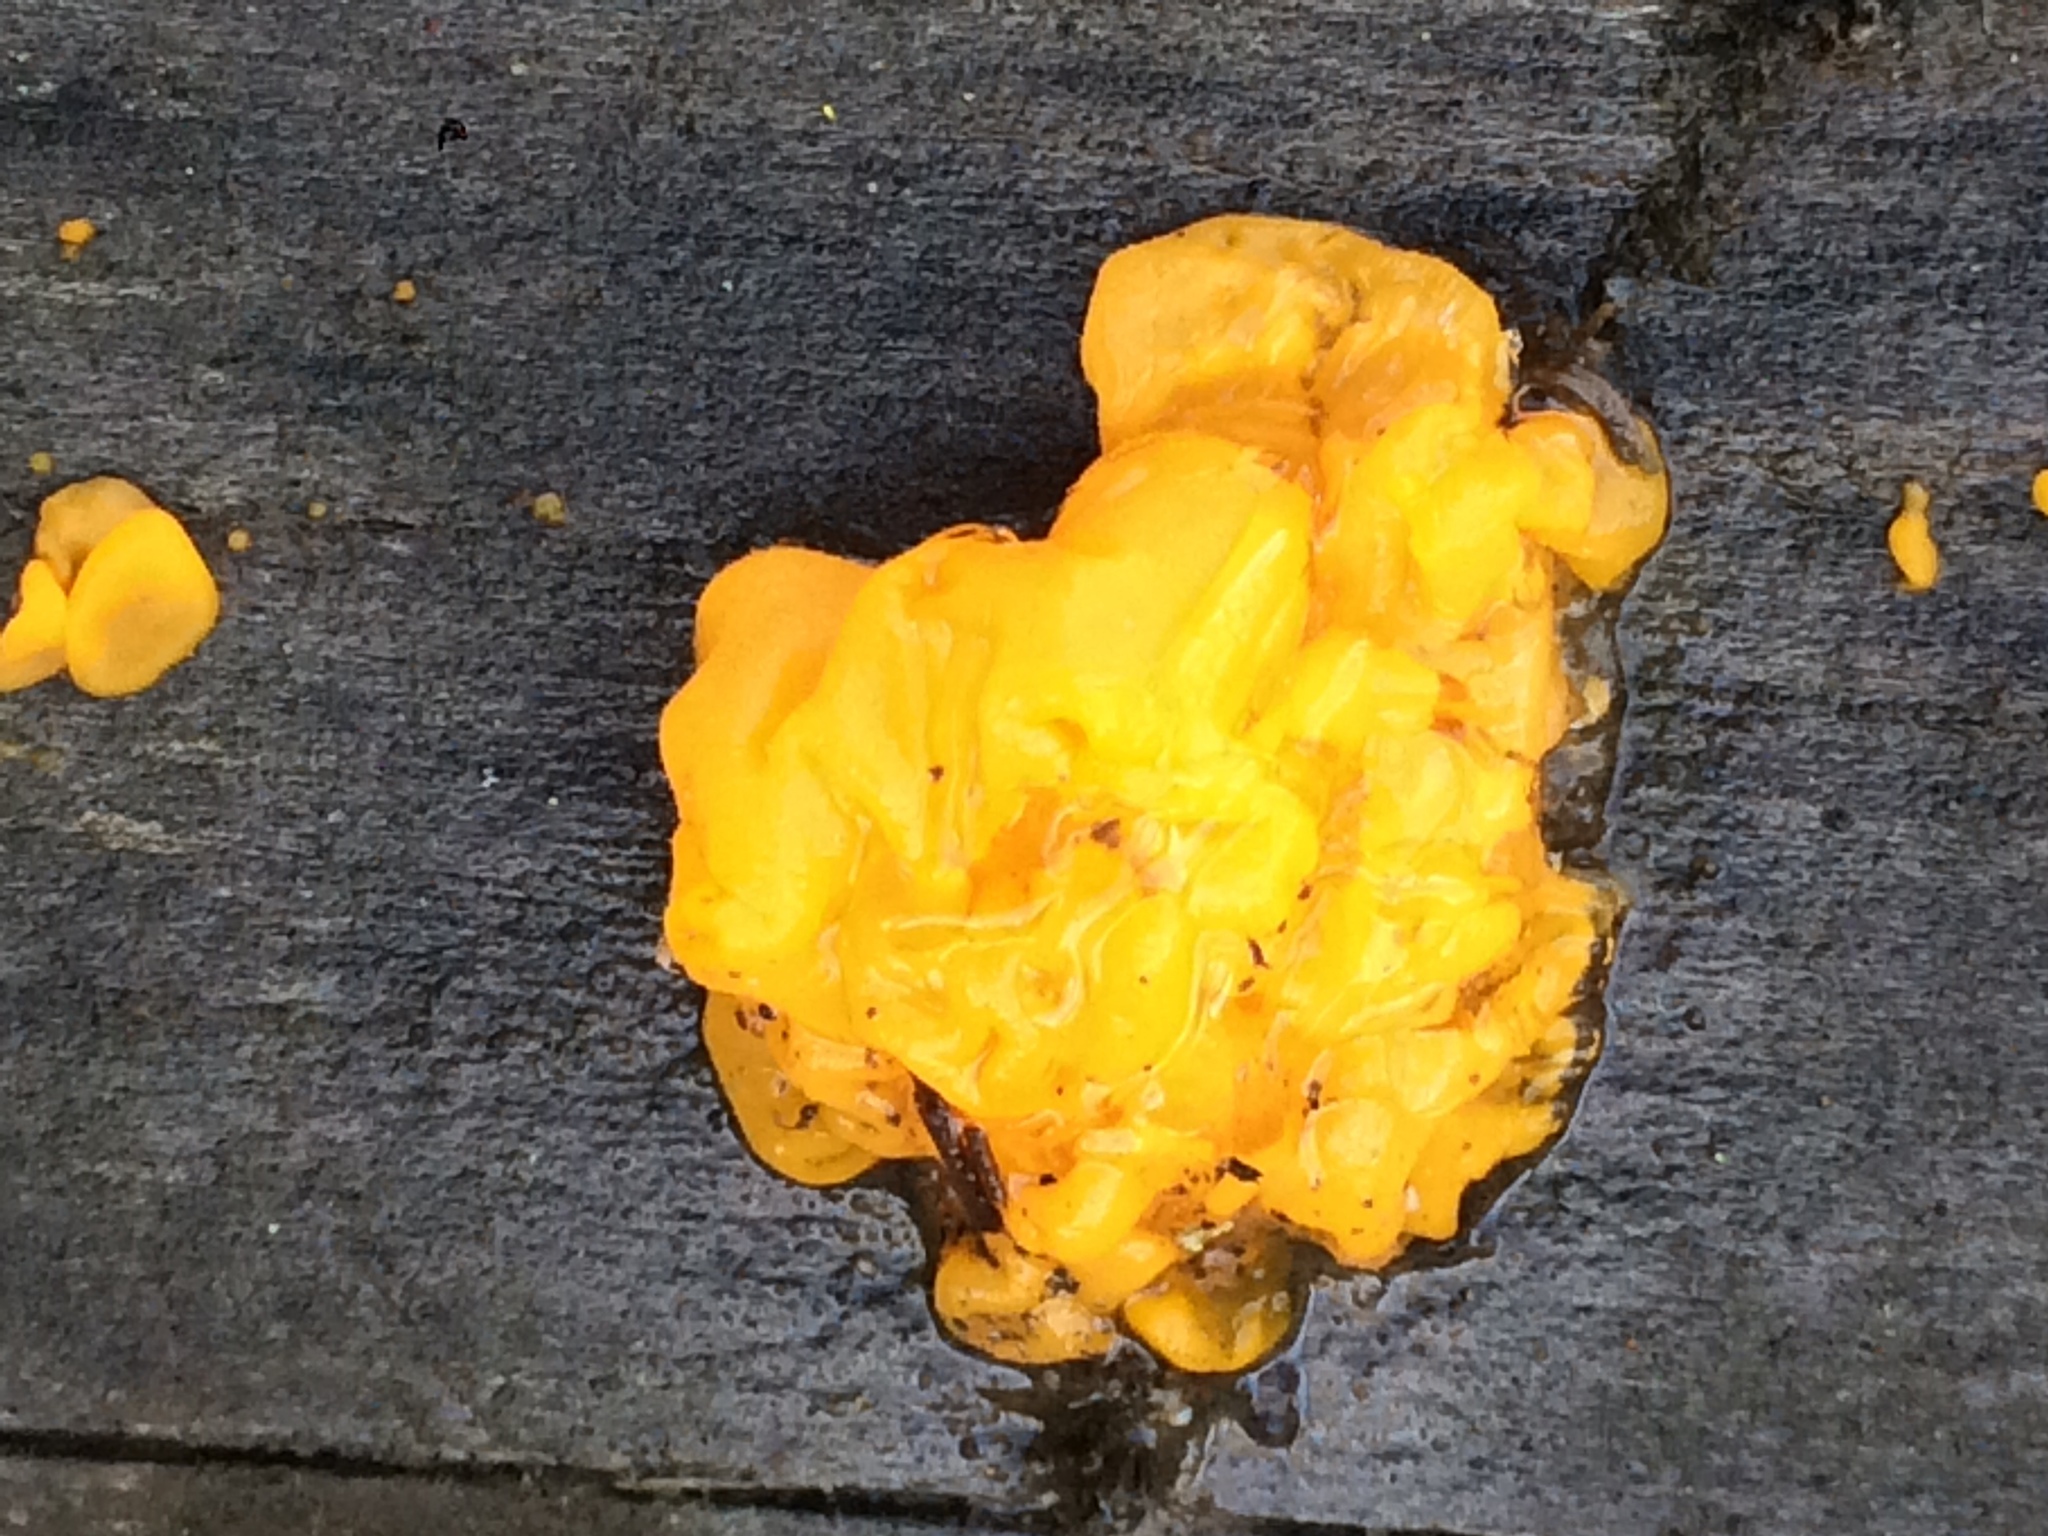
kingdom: Fungi
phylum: Basidiomycota
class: Dacrymycetes
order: Dacrymycetales
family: Dacrymycetaceae
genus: Dacrymyces
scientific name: Dacrymyces chrysospermus
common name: Orange jelly spot
